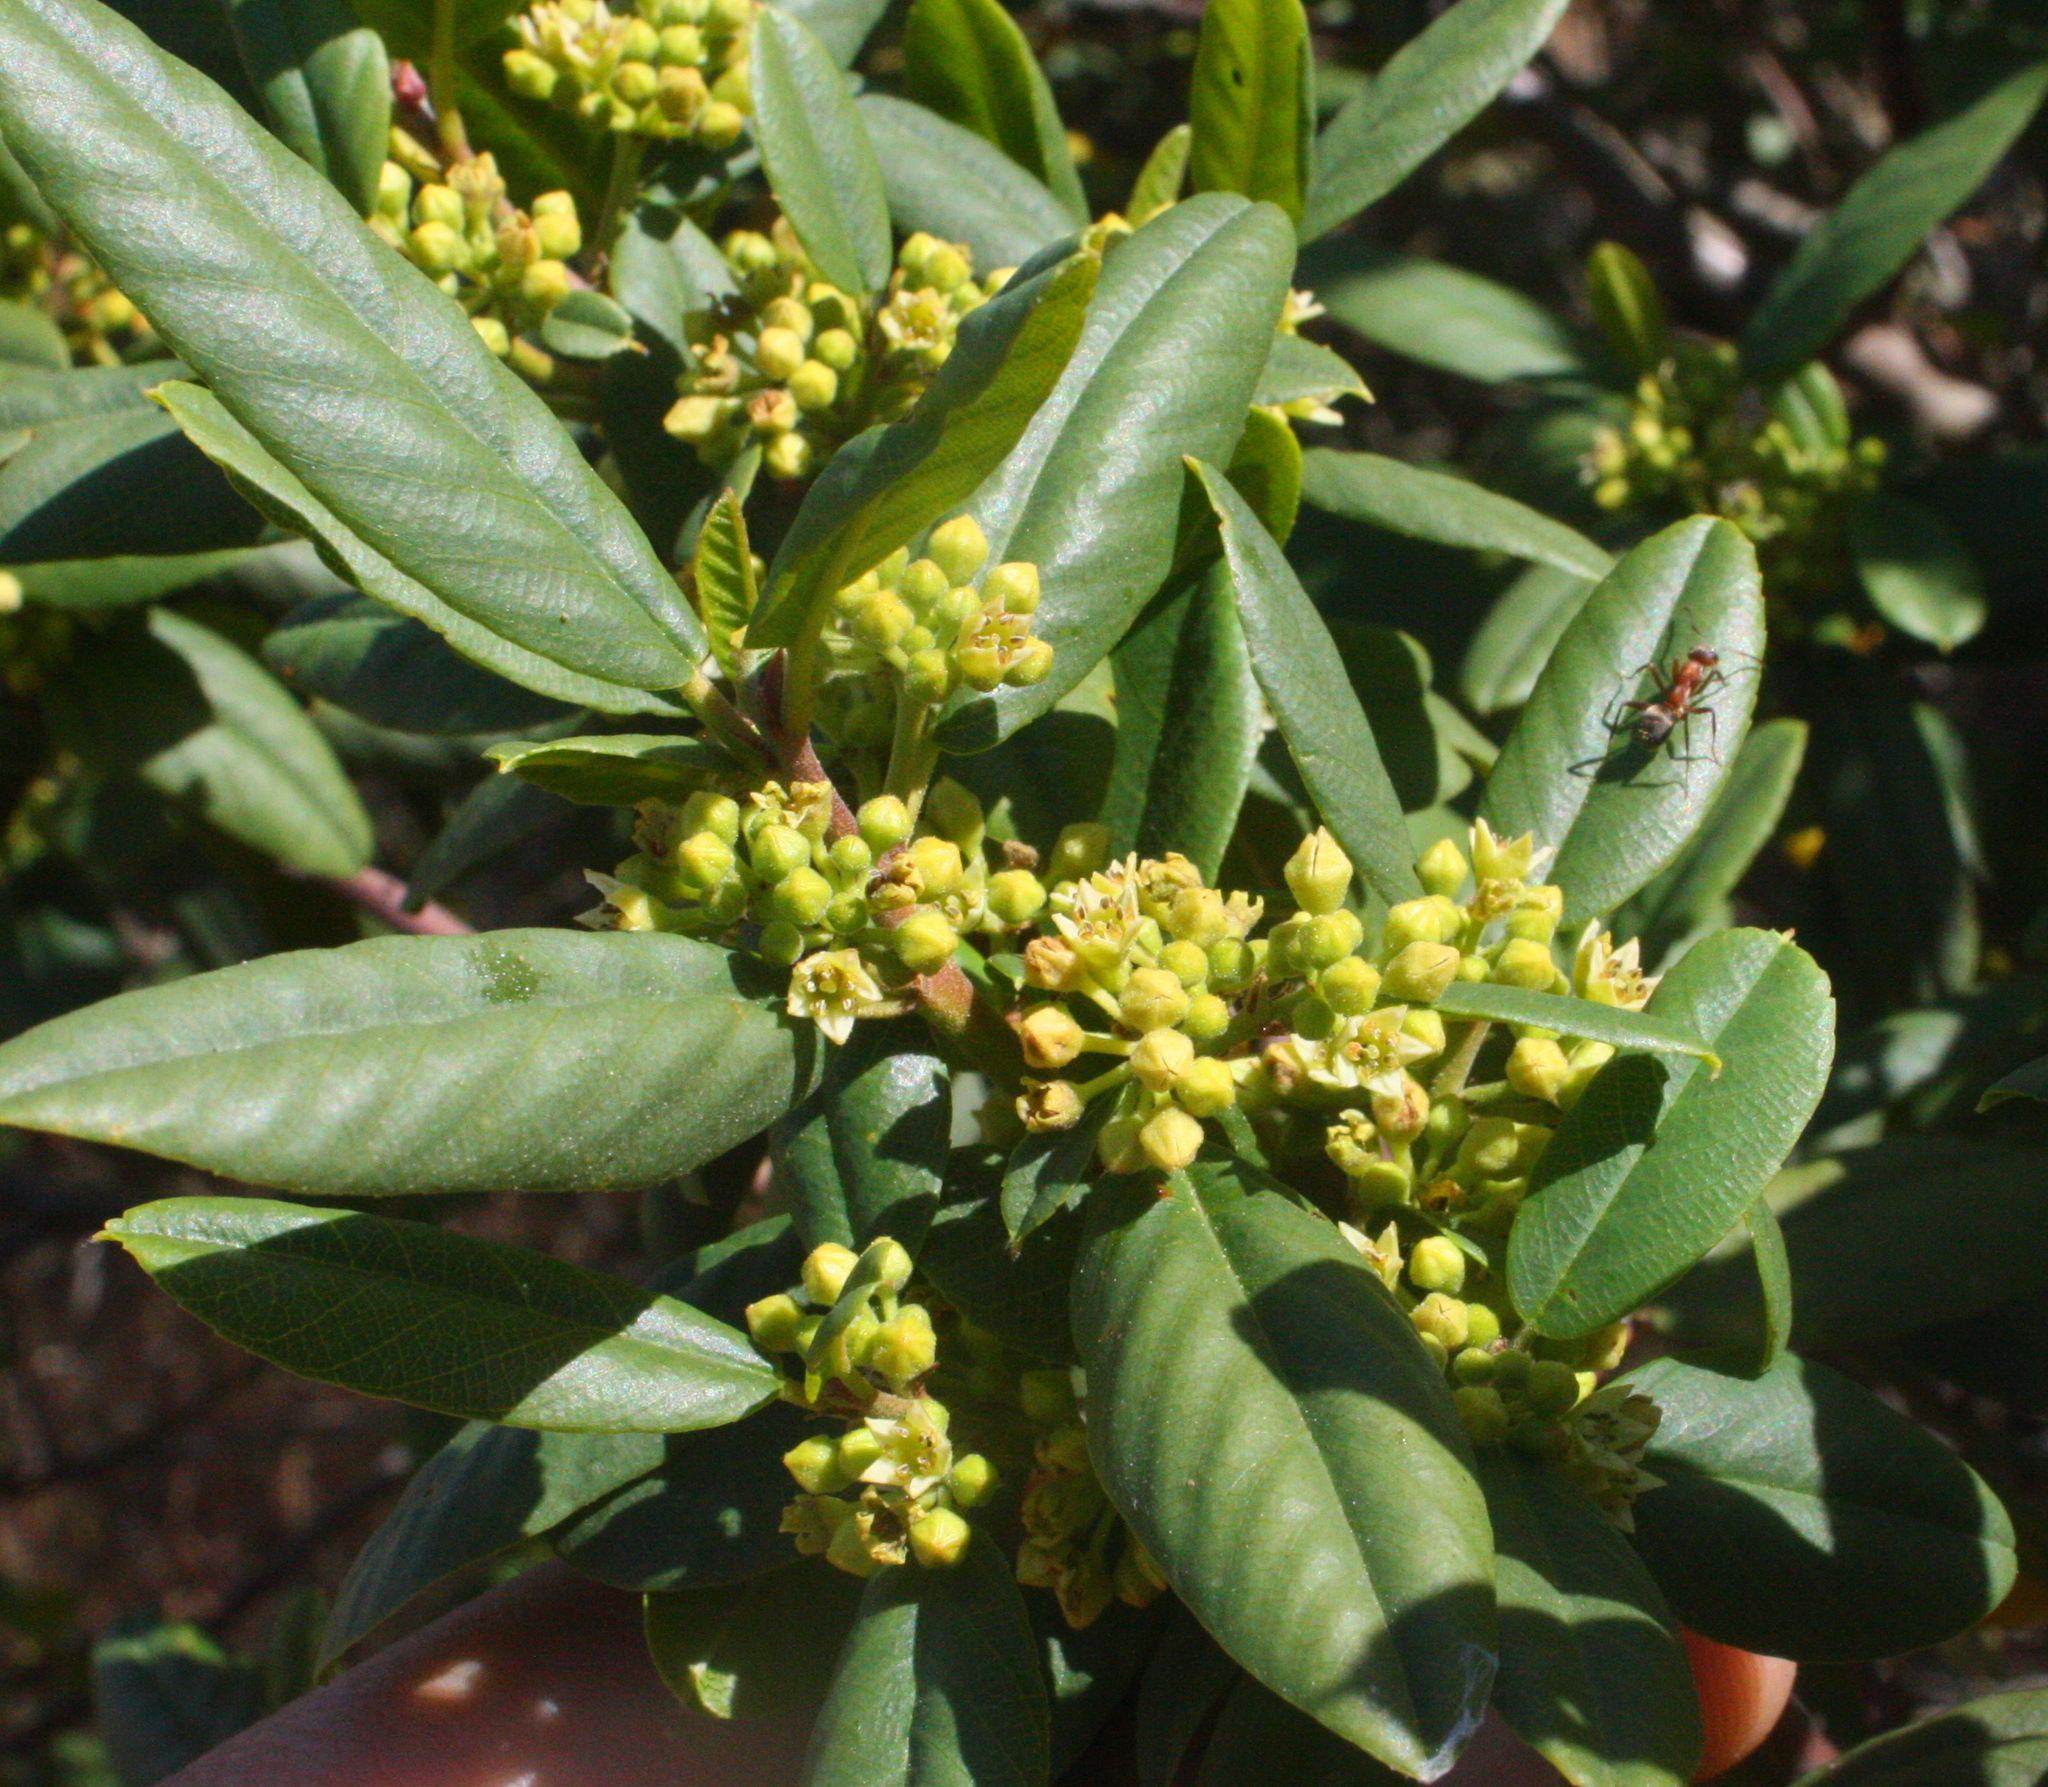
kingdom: Plantae
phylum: Tracheophyta
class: Magnoliopsida
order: Rosales
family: Rhamnaceae
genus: Frangula
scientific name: Frangula californica
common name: California buckthorn
